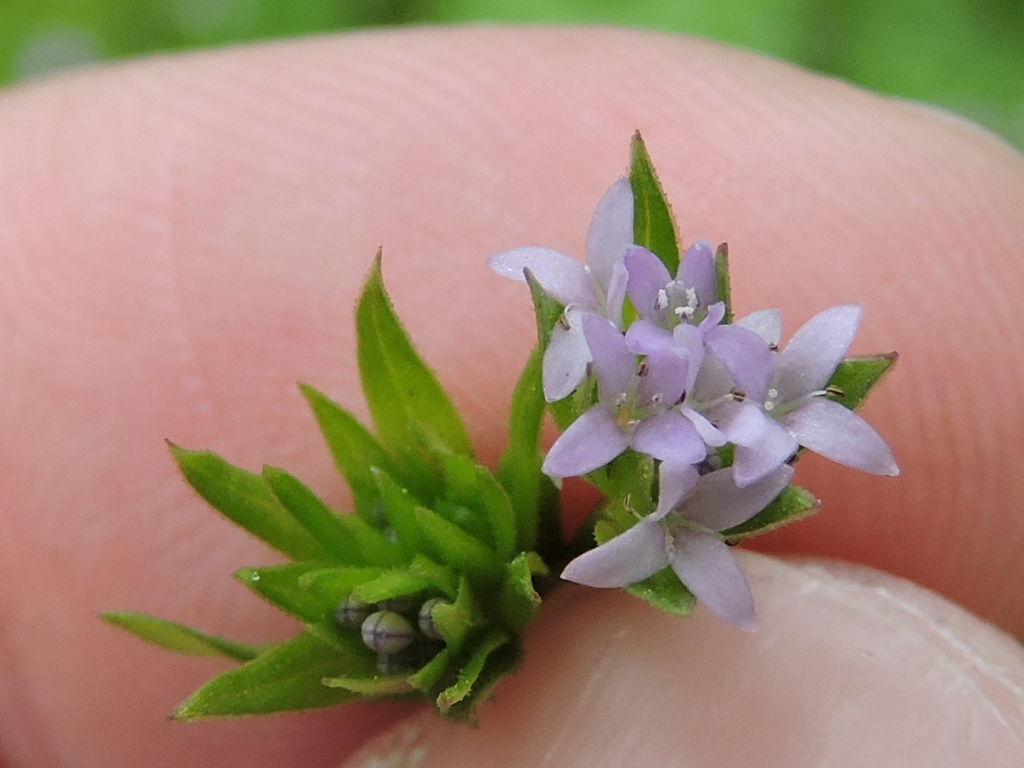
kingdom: Plantae
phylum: Tracheophyta
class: Magnoliopsida
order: Gentianales
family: Rubiaceae
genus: Sherardia
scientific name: Sherardia arvensis
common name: Field madder
